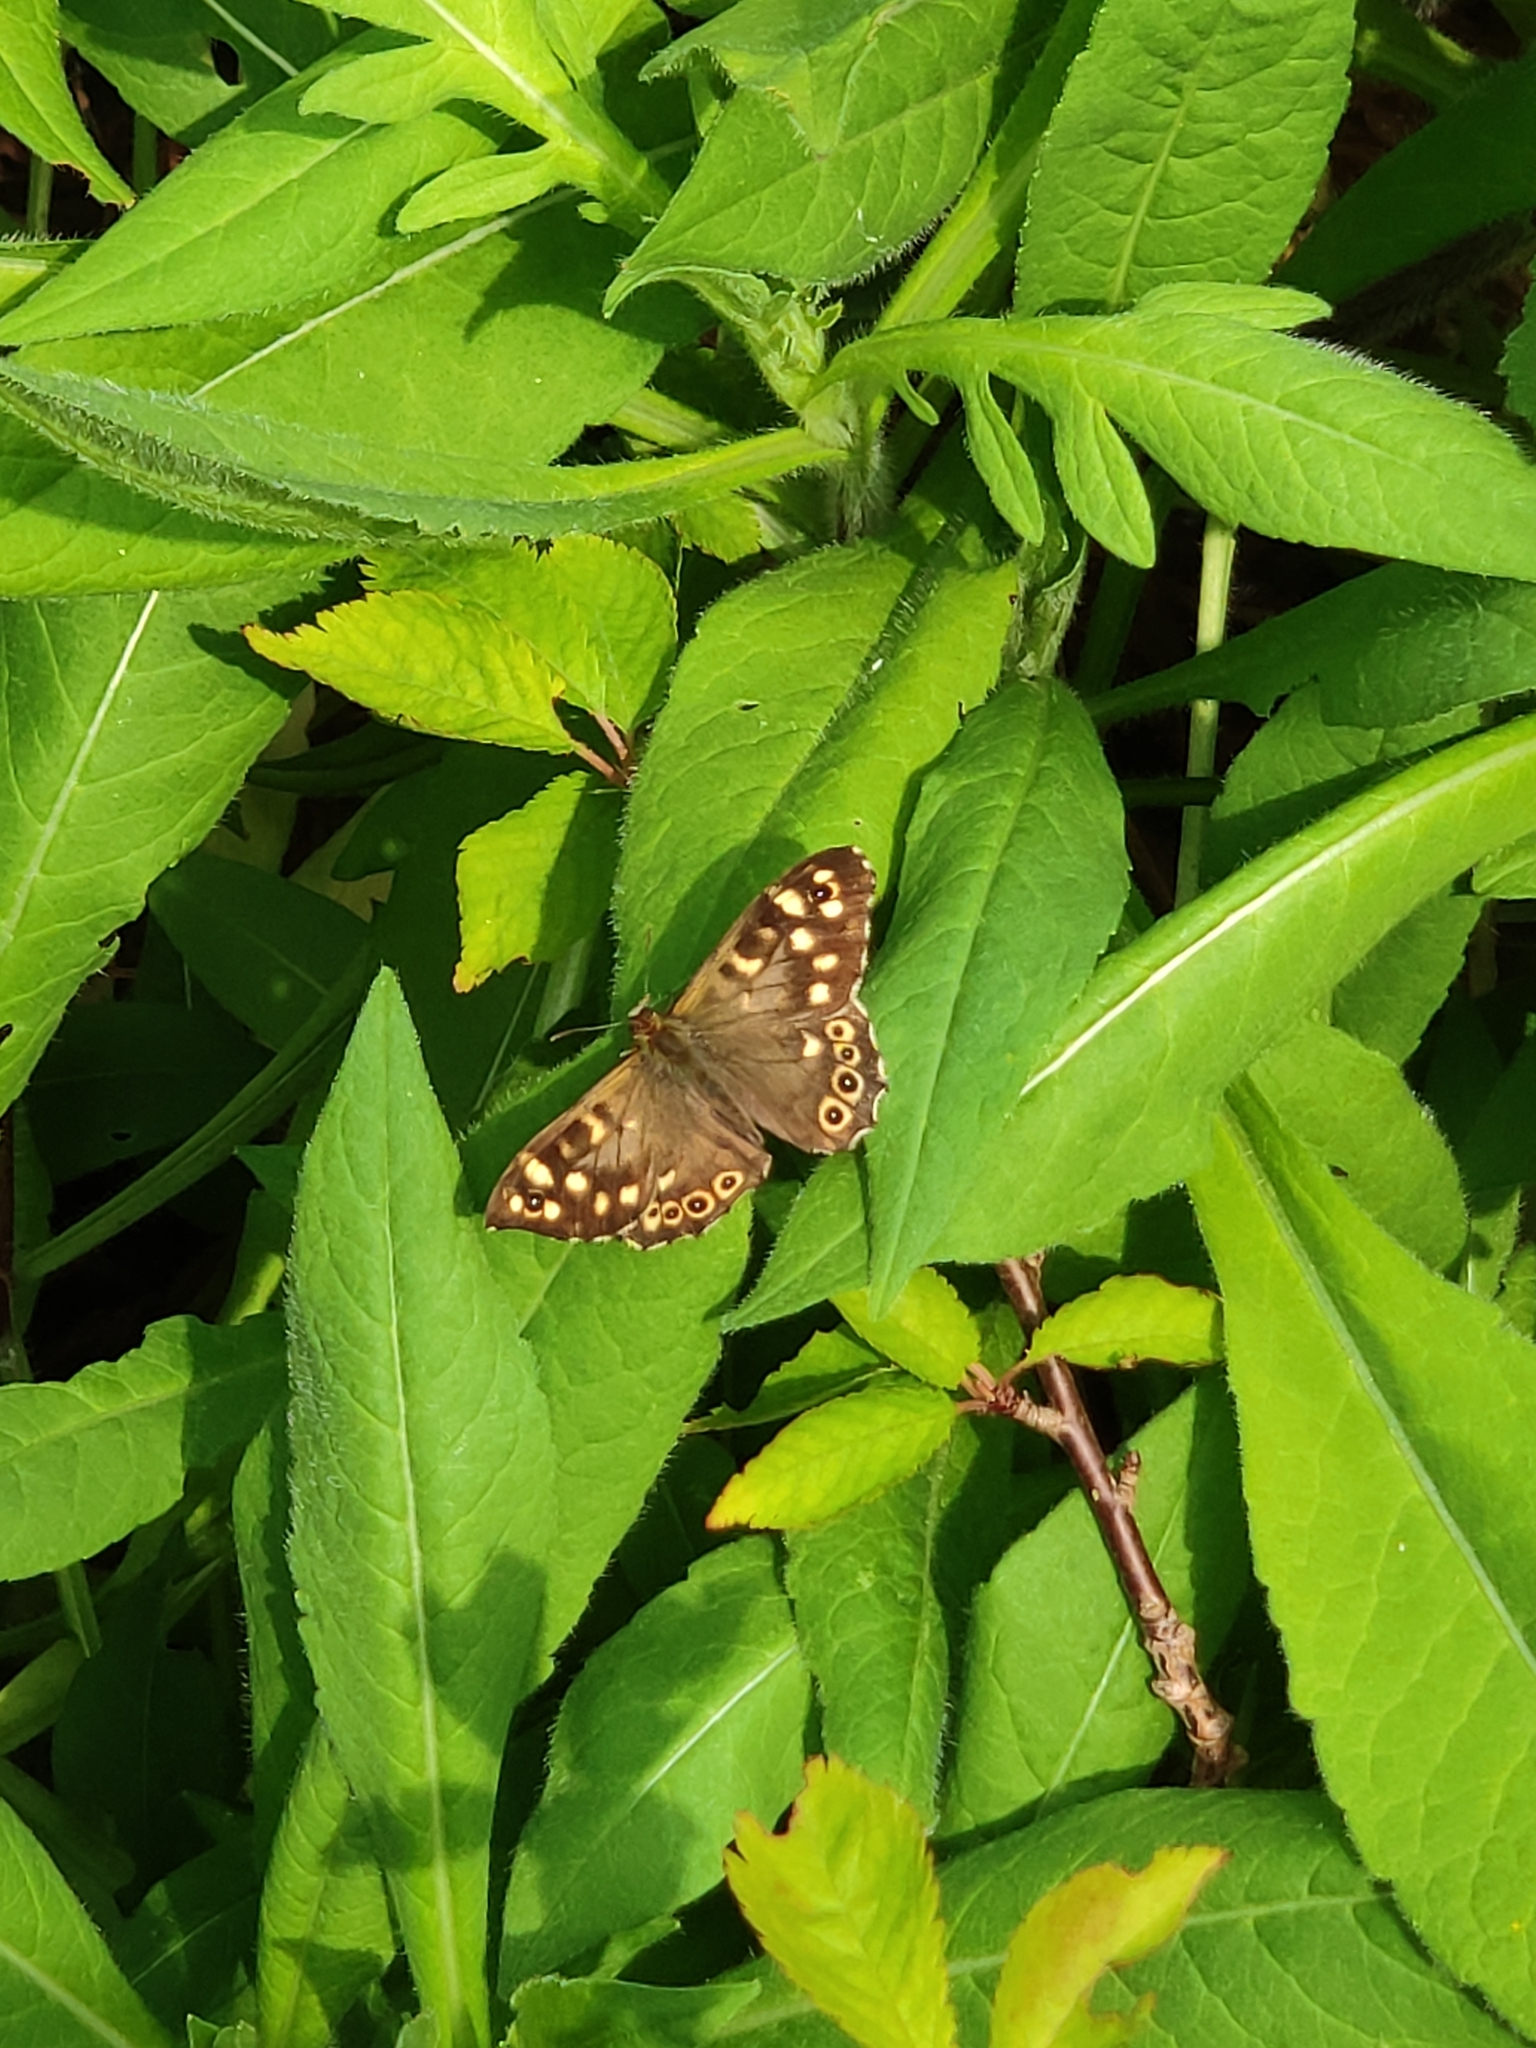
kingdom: Animalia
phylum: Arthropoda
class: Insecta
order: Lepidoptera
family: Nymphalidae
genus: Pararge
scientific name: Pararge aegeria
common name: Speckled wood
